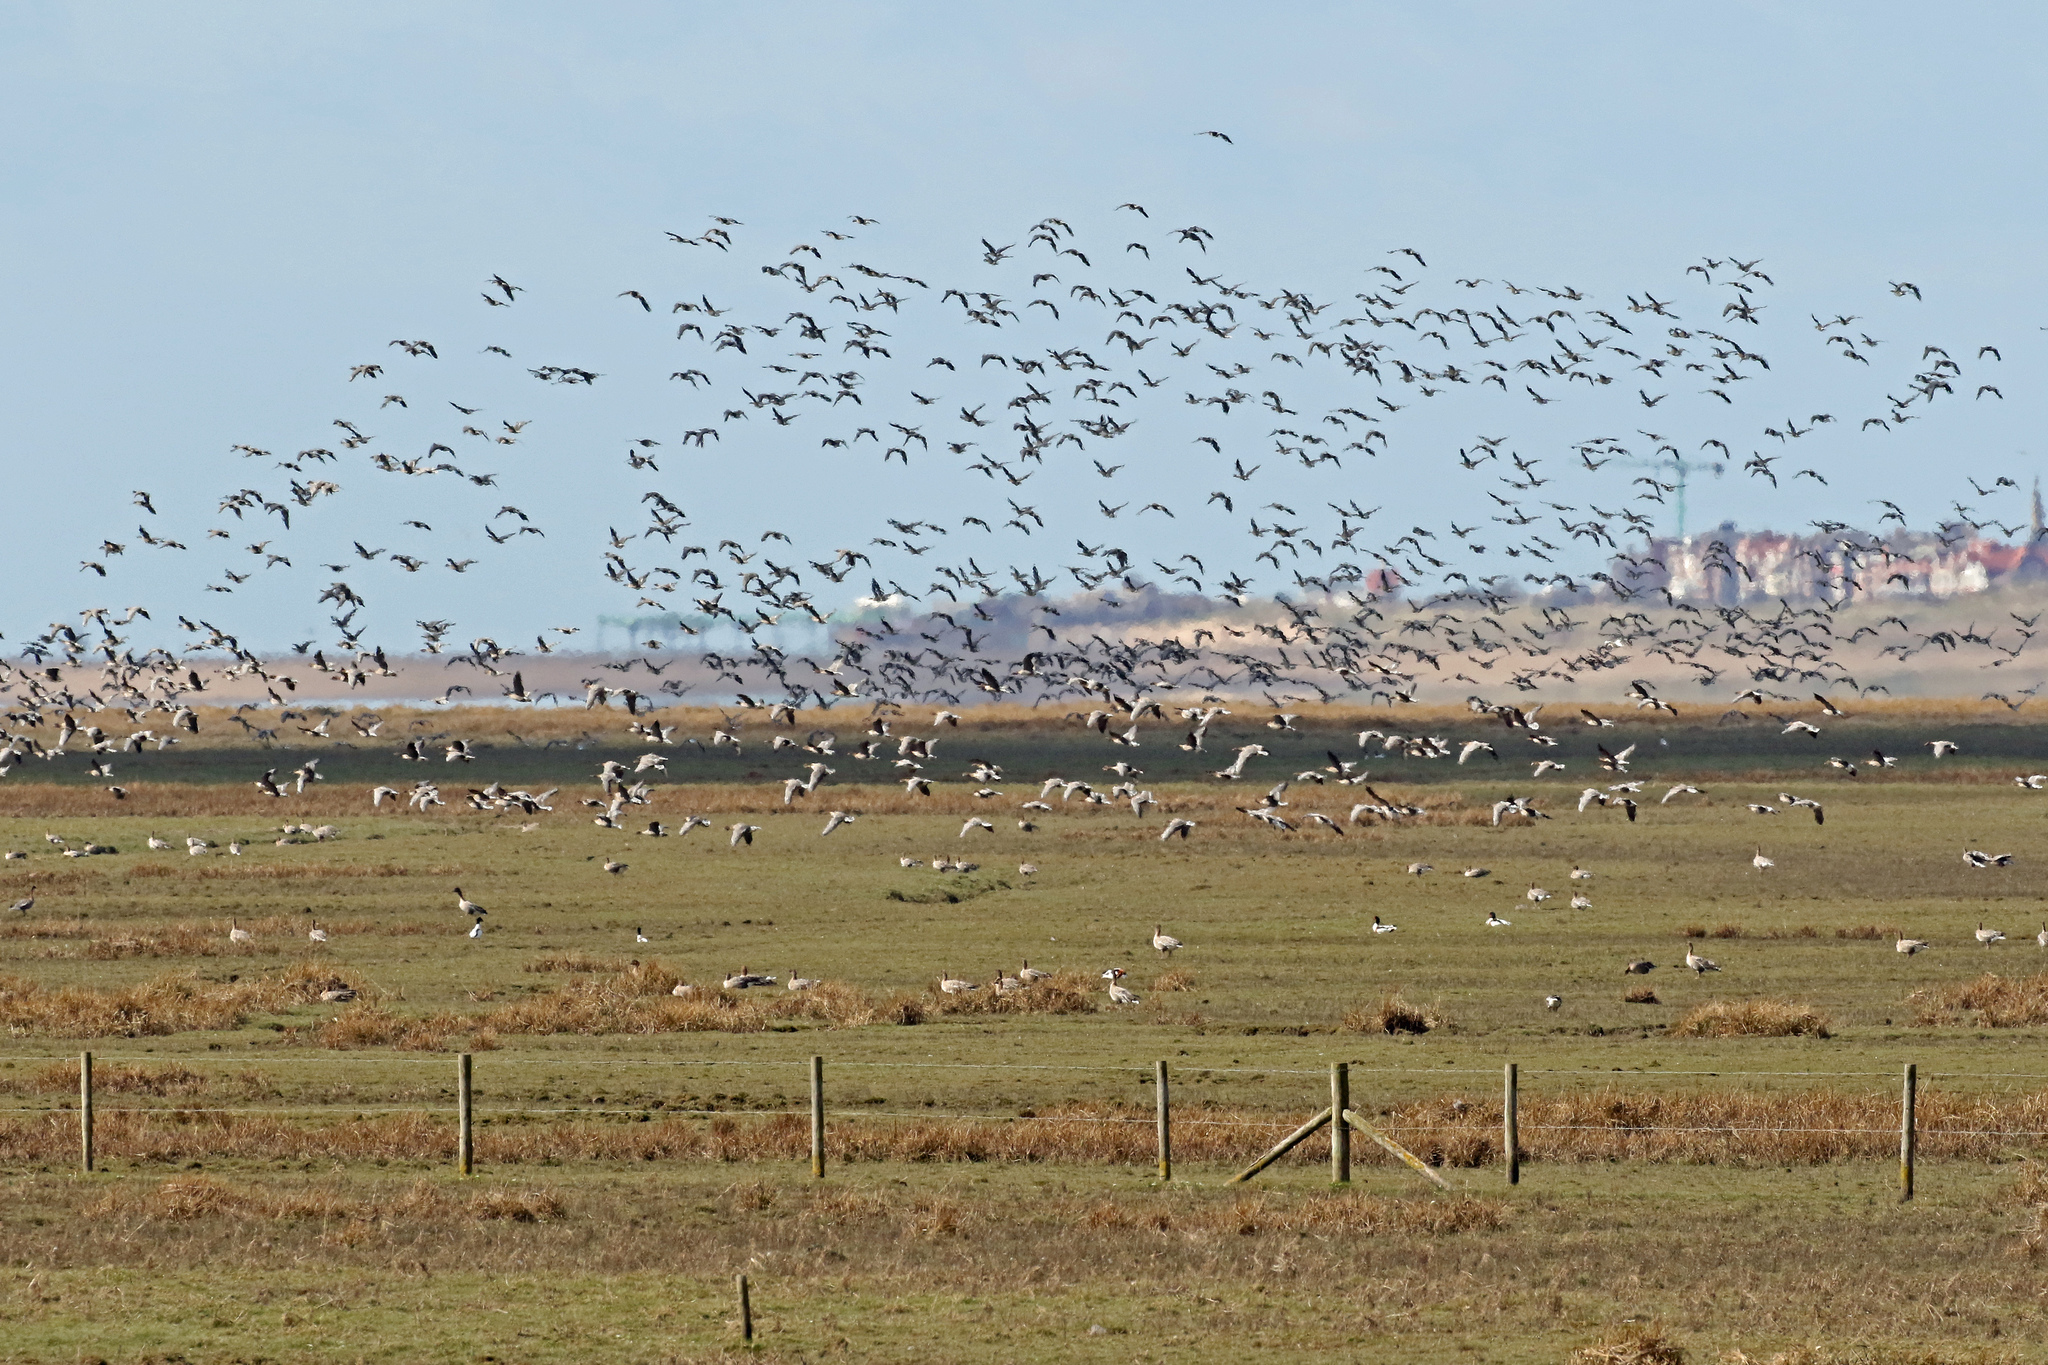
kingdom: Animalia
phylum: Chordata
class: Aves
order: Anseriformes
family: Anatidae
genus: Anser
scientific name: Anser brachyrhynchus
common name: Pink-footed goose
